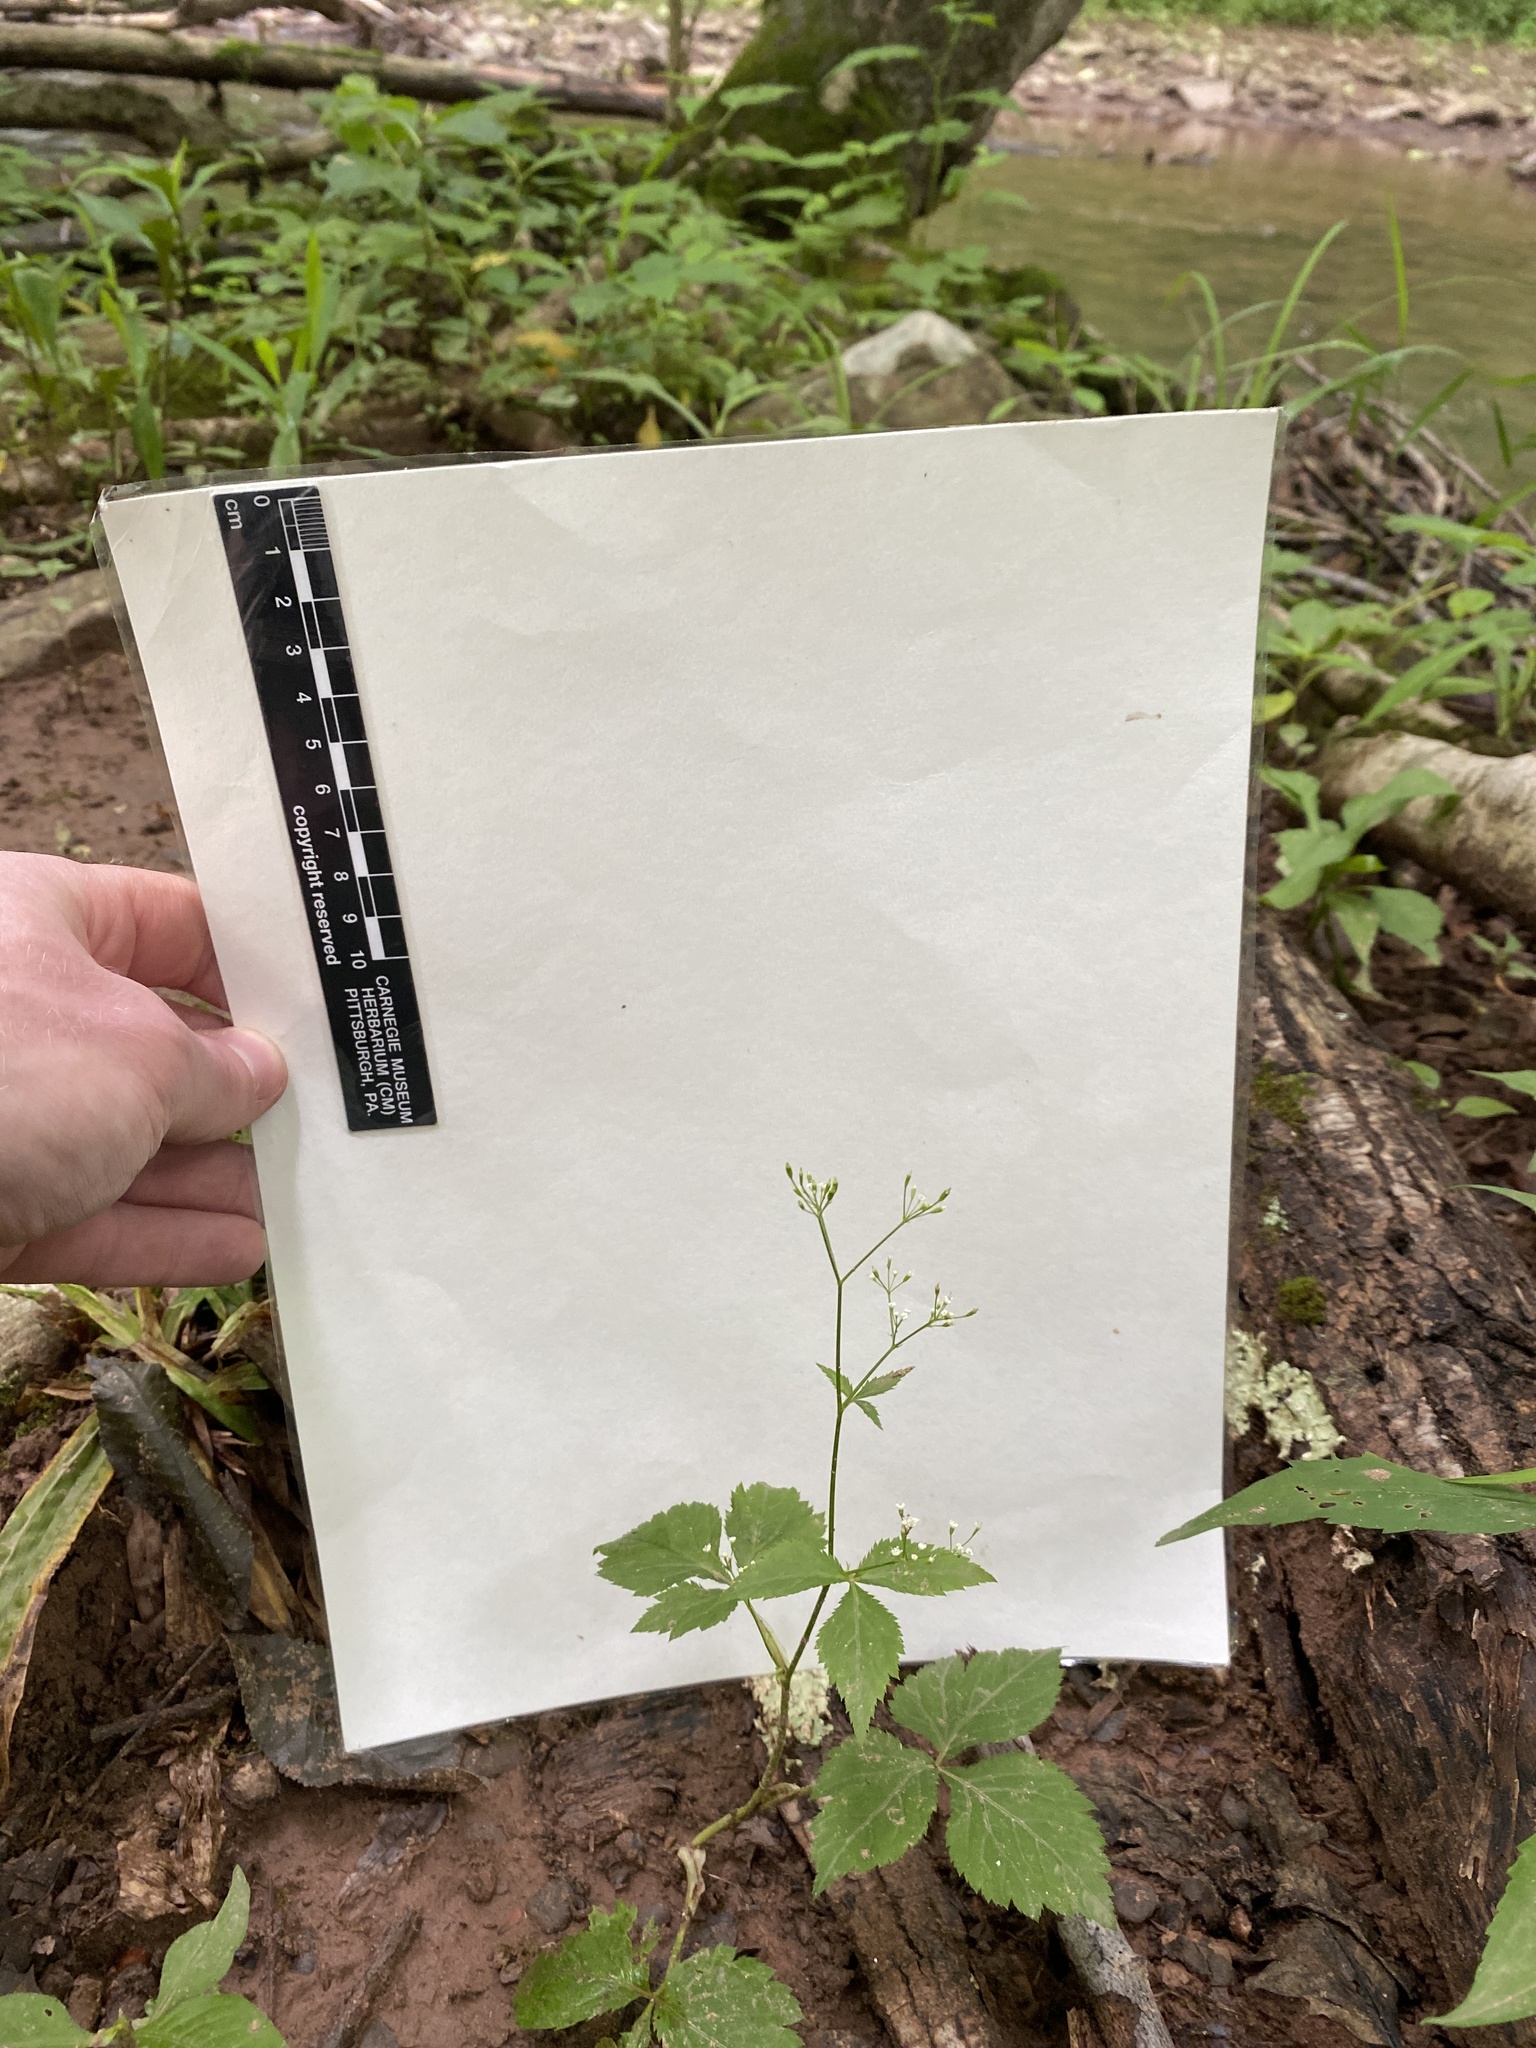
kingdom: Plantae
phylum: Tracheophyta
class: Magnoliopsida
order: Apiales
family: Apiaceae
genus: Cryptotaenia
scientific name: Cryptotaenia canadensis
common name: Honewort
